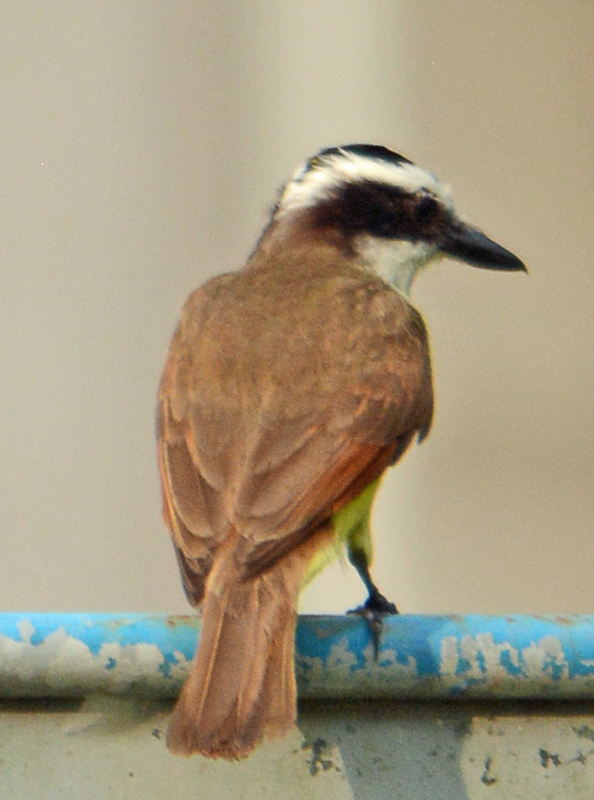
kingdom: Animalia
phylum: Chordata
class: Aves
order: Passeriformes
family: Tyrannidae
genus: Pitangus
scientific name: Pitangus sulphuratus
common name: Great kiskadee
